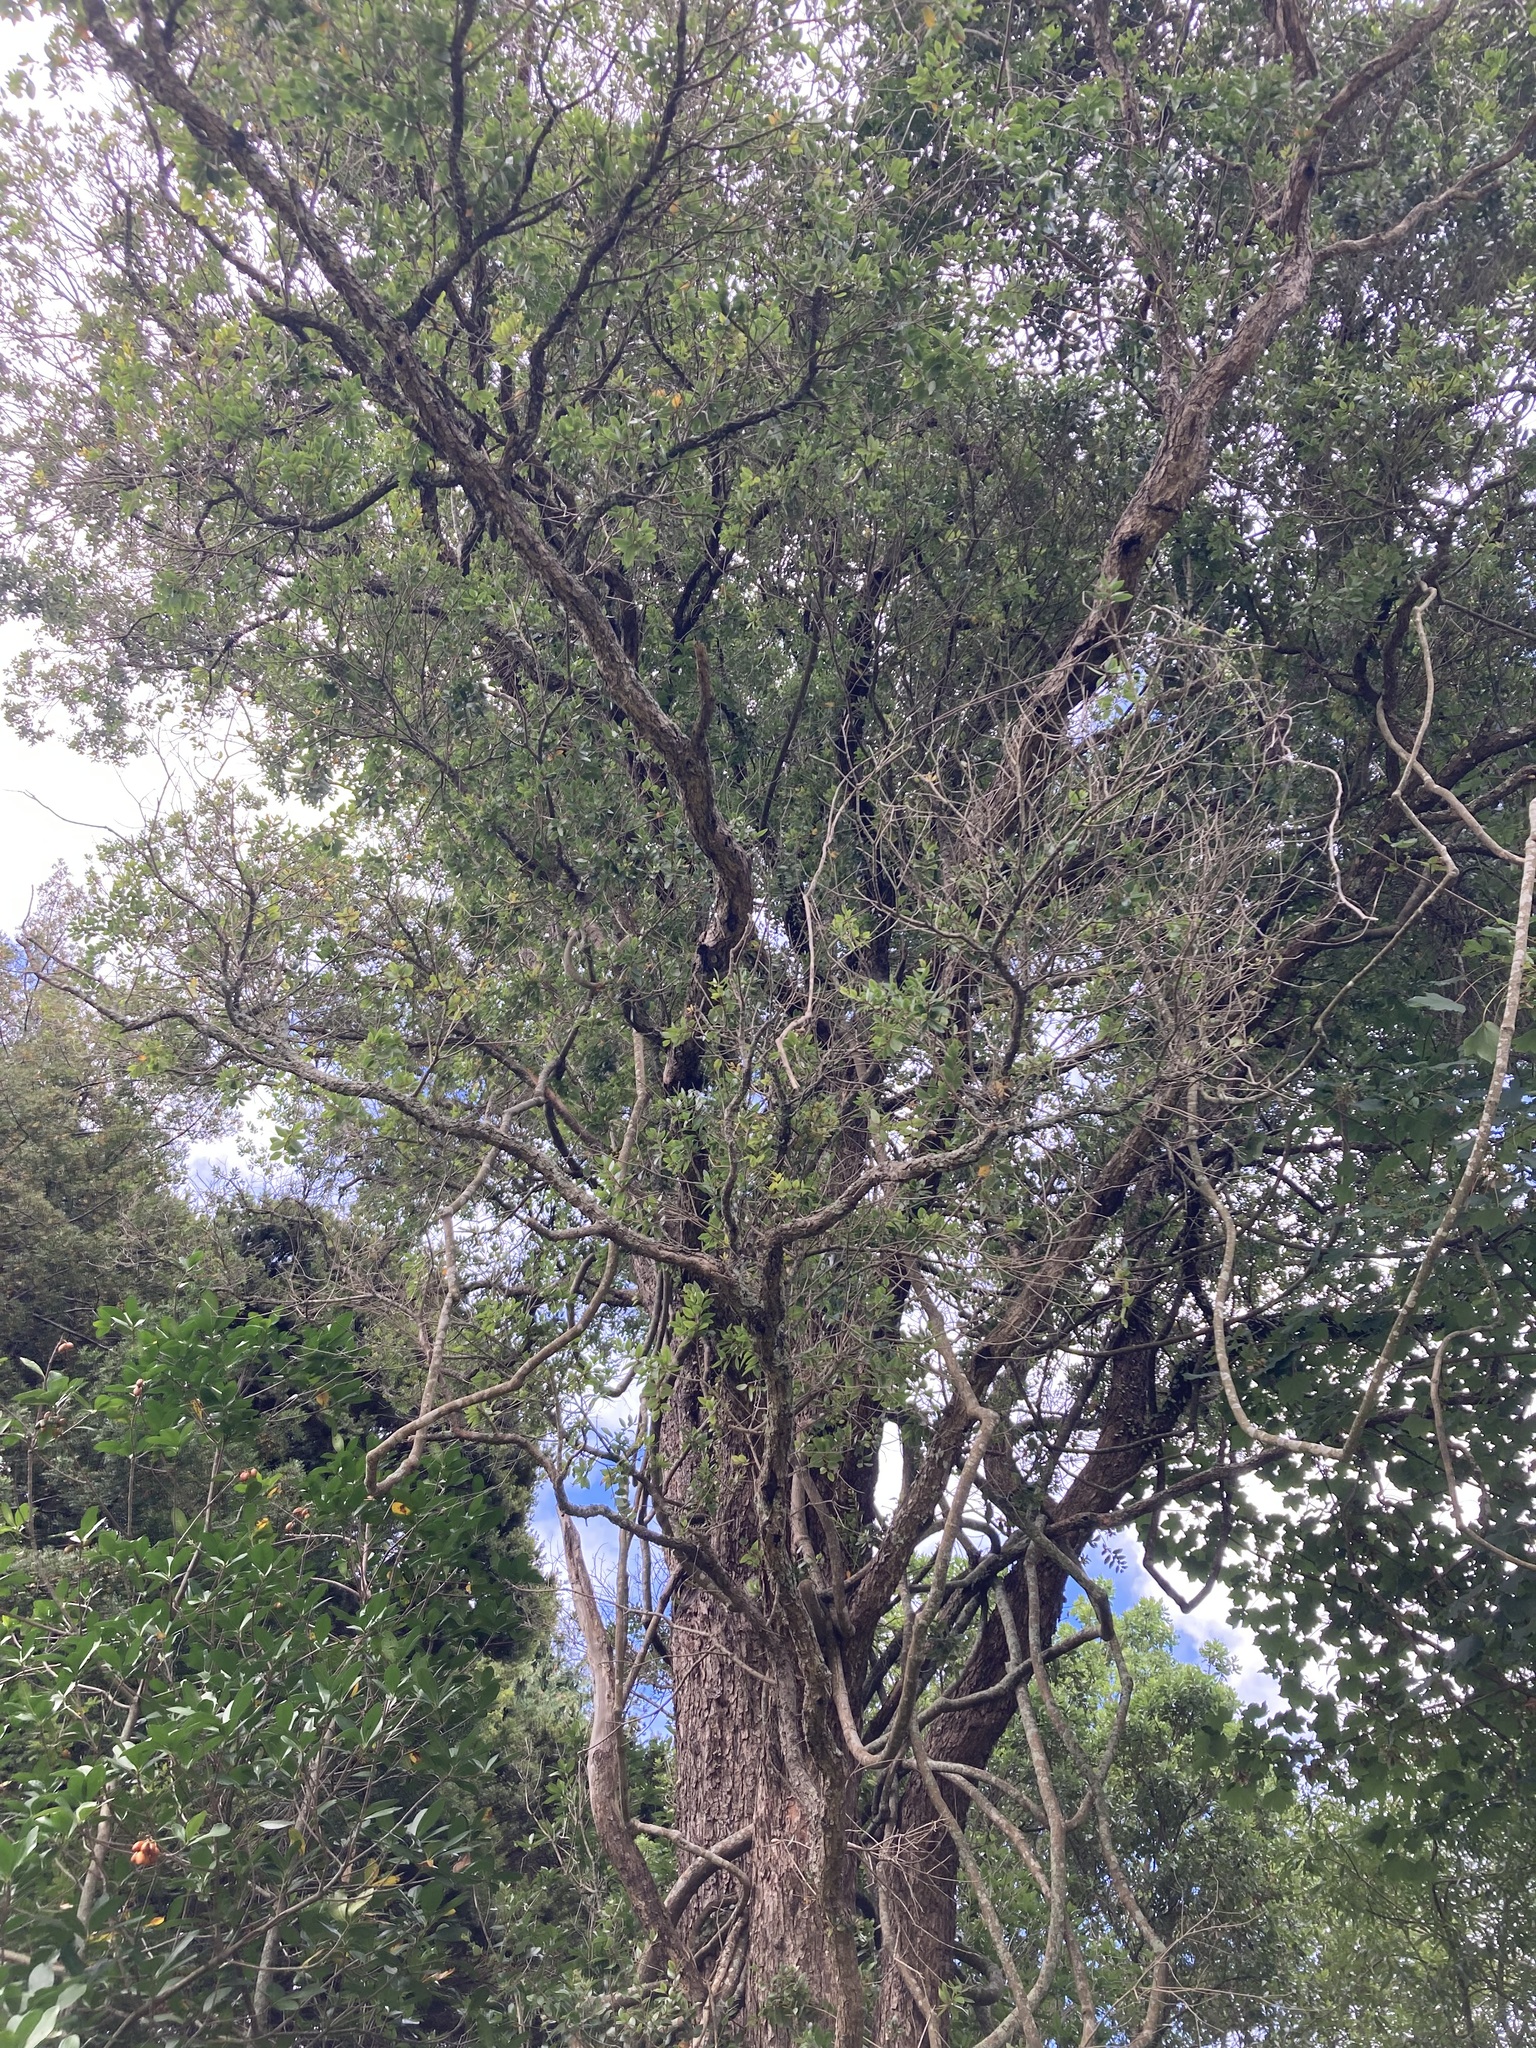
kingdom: Plantae
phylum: Tracheophyta
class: Magnoliopsida
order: Myrtales
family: Myrtaceae
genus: Metrosideros
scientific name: Metrosideros robusta
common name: Northern rata
